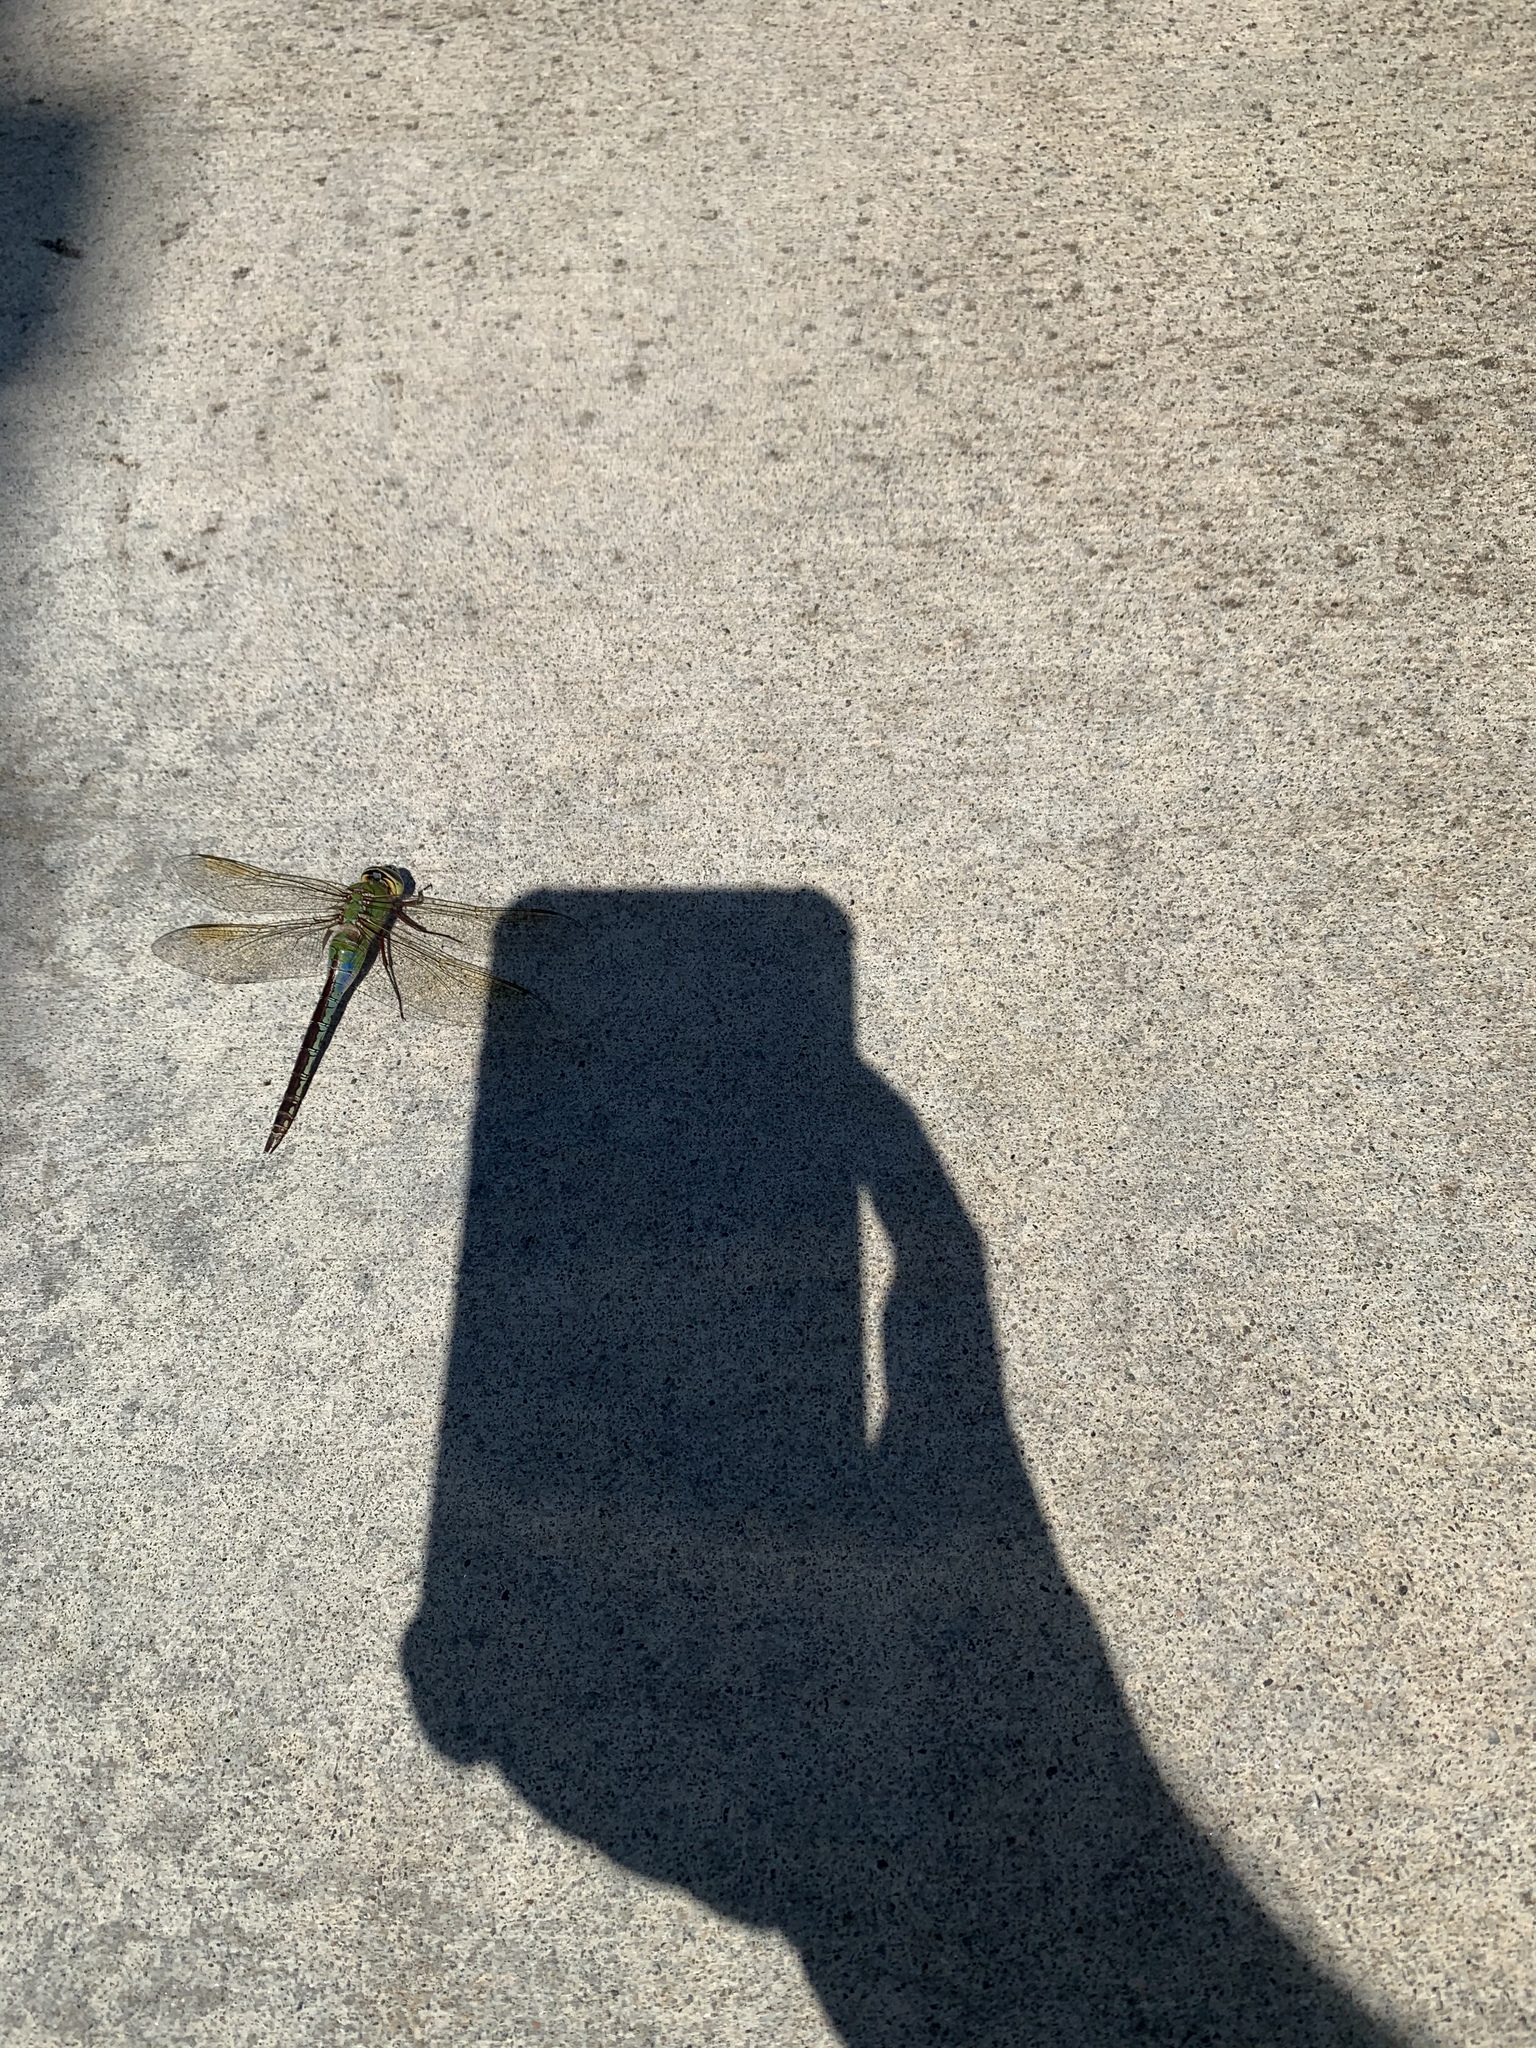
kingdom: Animalia
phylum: Arthropoda
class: Insecta
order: Odonata
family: Aeshnidae
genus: Anax
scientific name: Anax junius
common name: Common green darner
